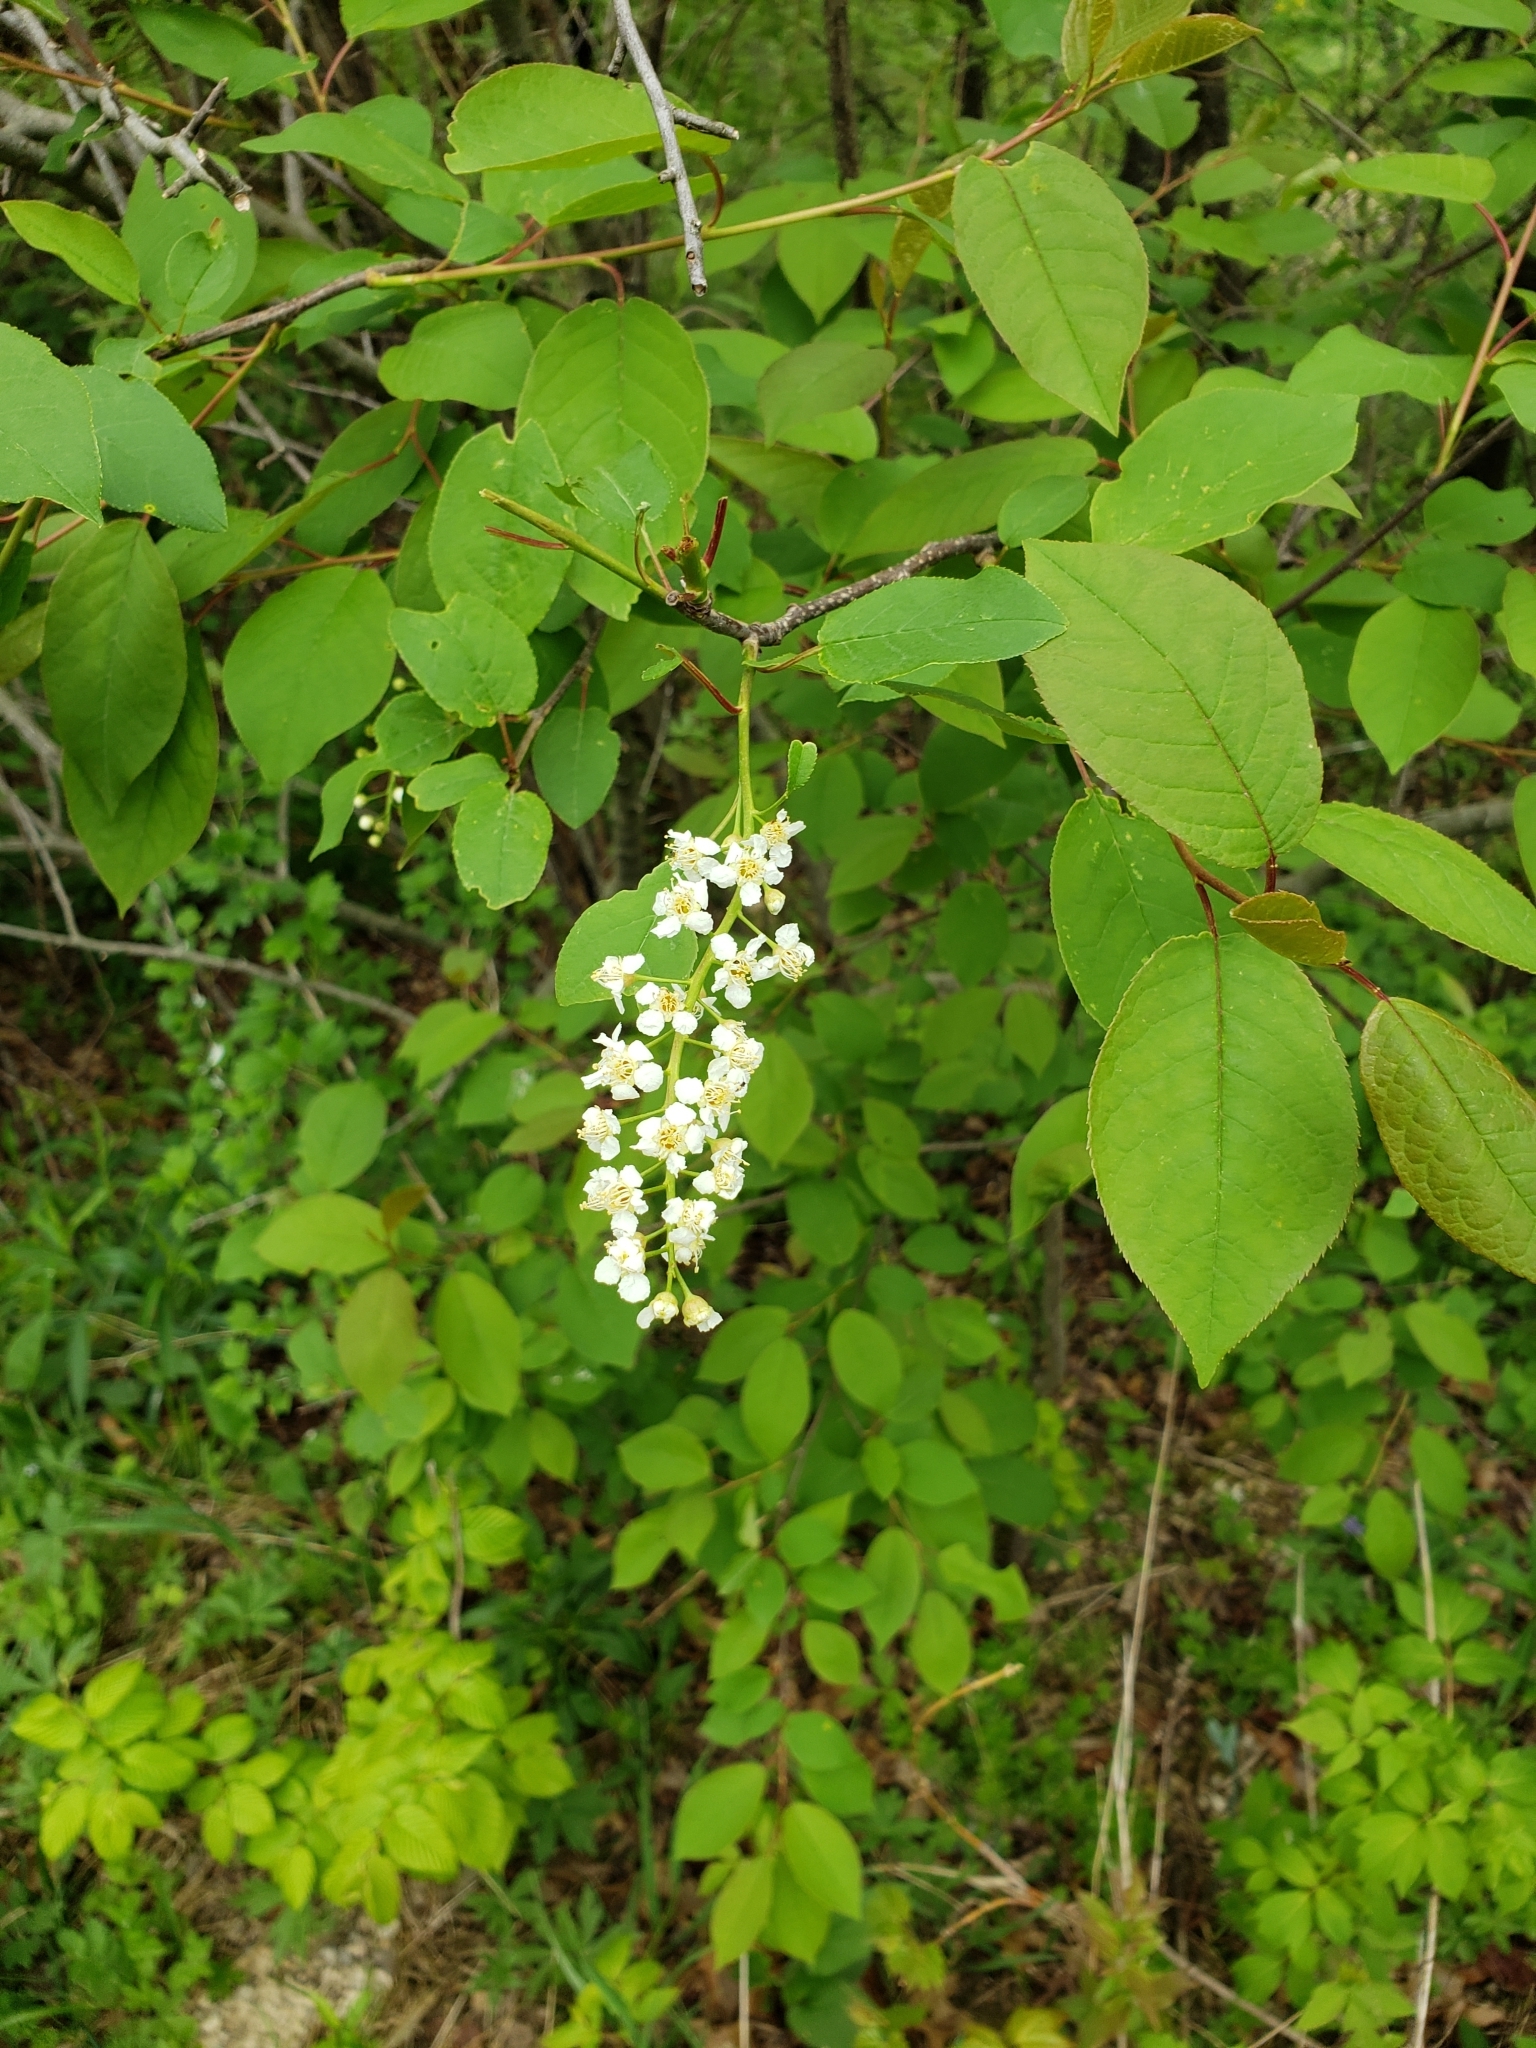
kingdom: Plantae
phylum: Tracheophyta
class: Magnoliopsida
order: Rosales
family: Rosaceae
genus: Prunus
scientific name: Prunus virginiana
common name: Chokecherry
